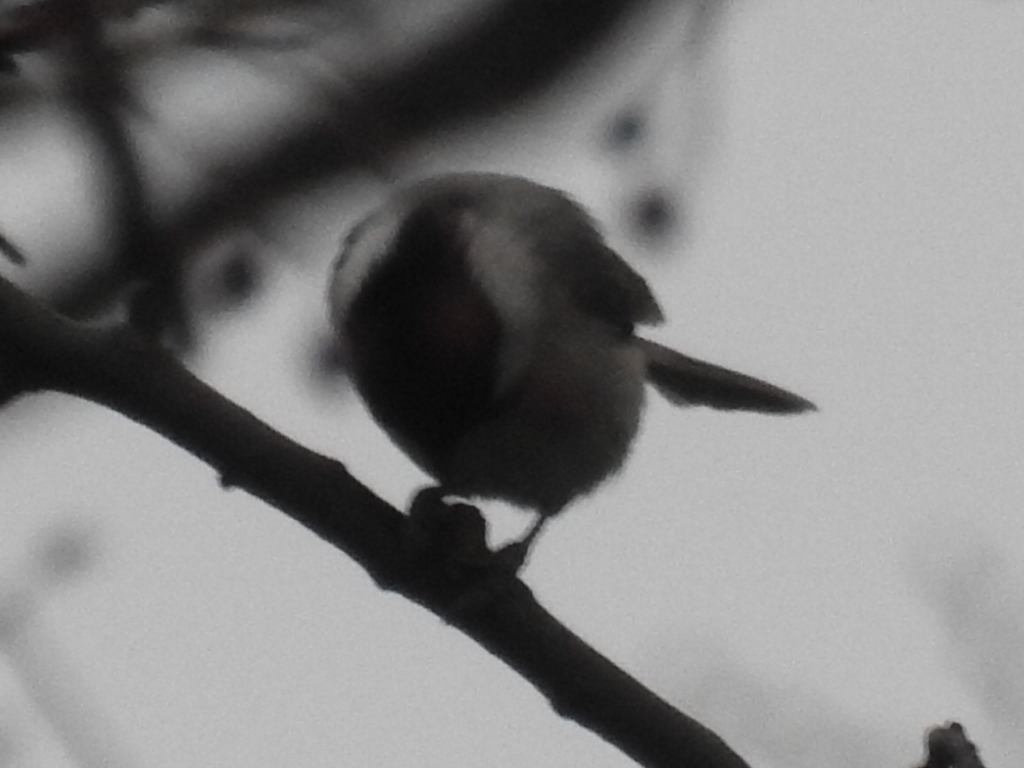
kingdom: Animalia
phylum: Chordata
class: Aves
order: Passeriformes
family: Paridae
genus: Poecile
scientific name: Poecile carolinensis
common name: Carolina chickadee
